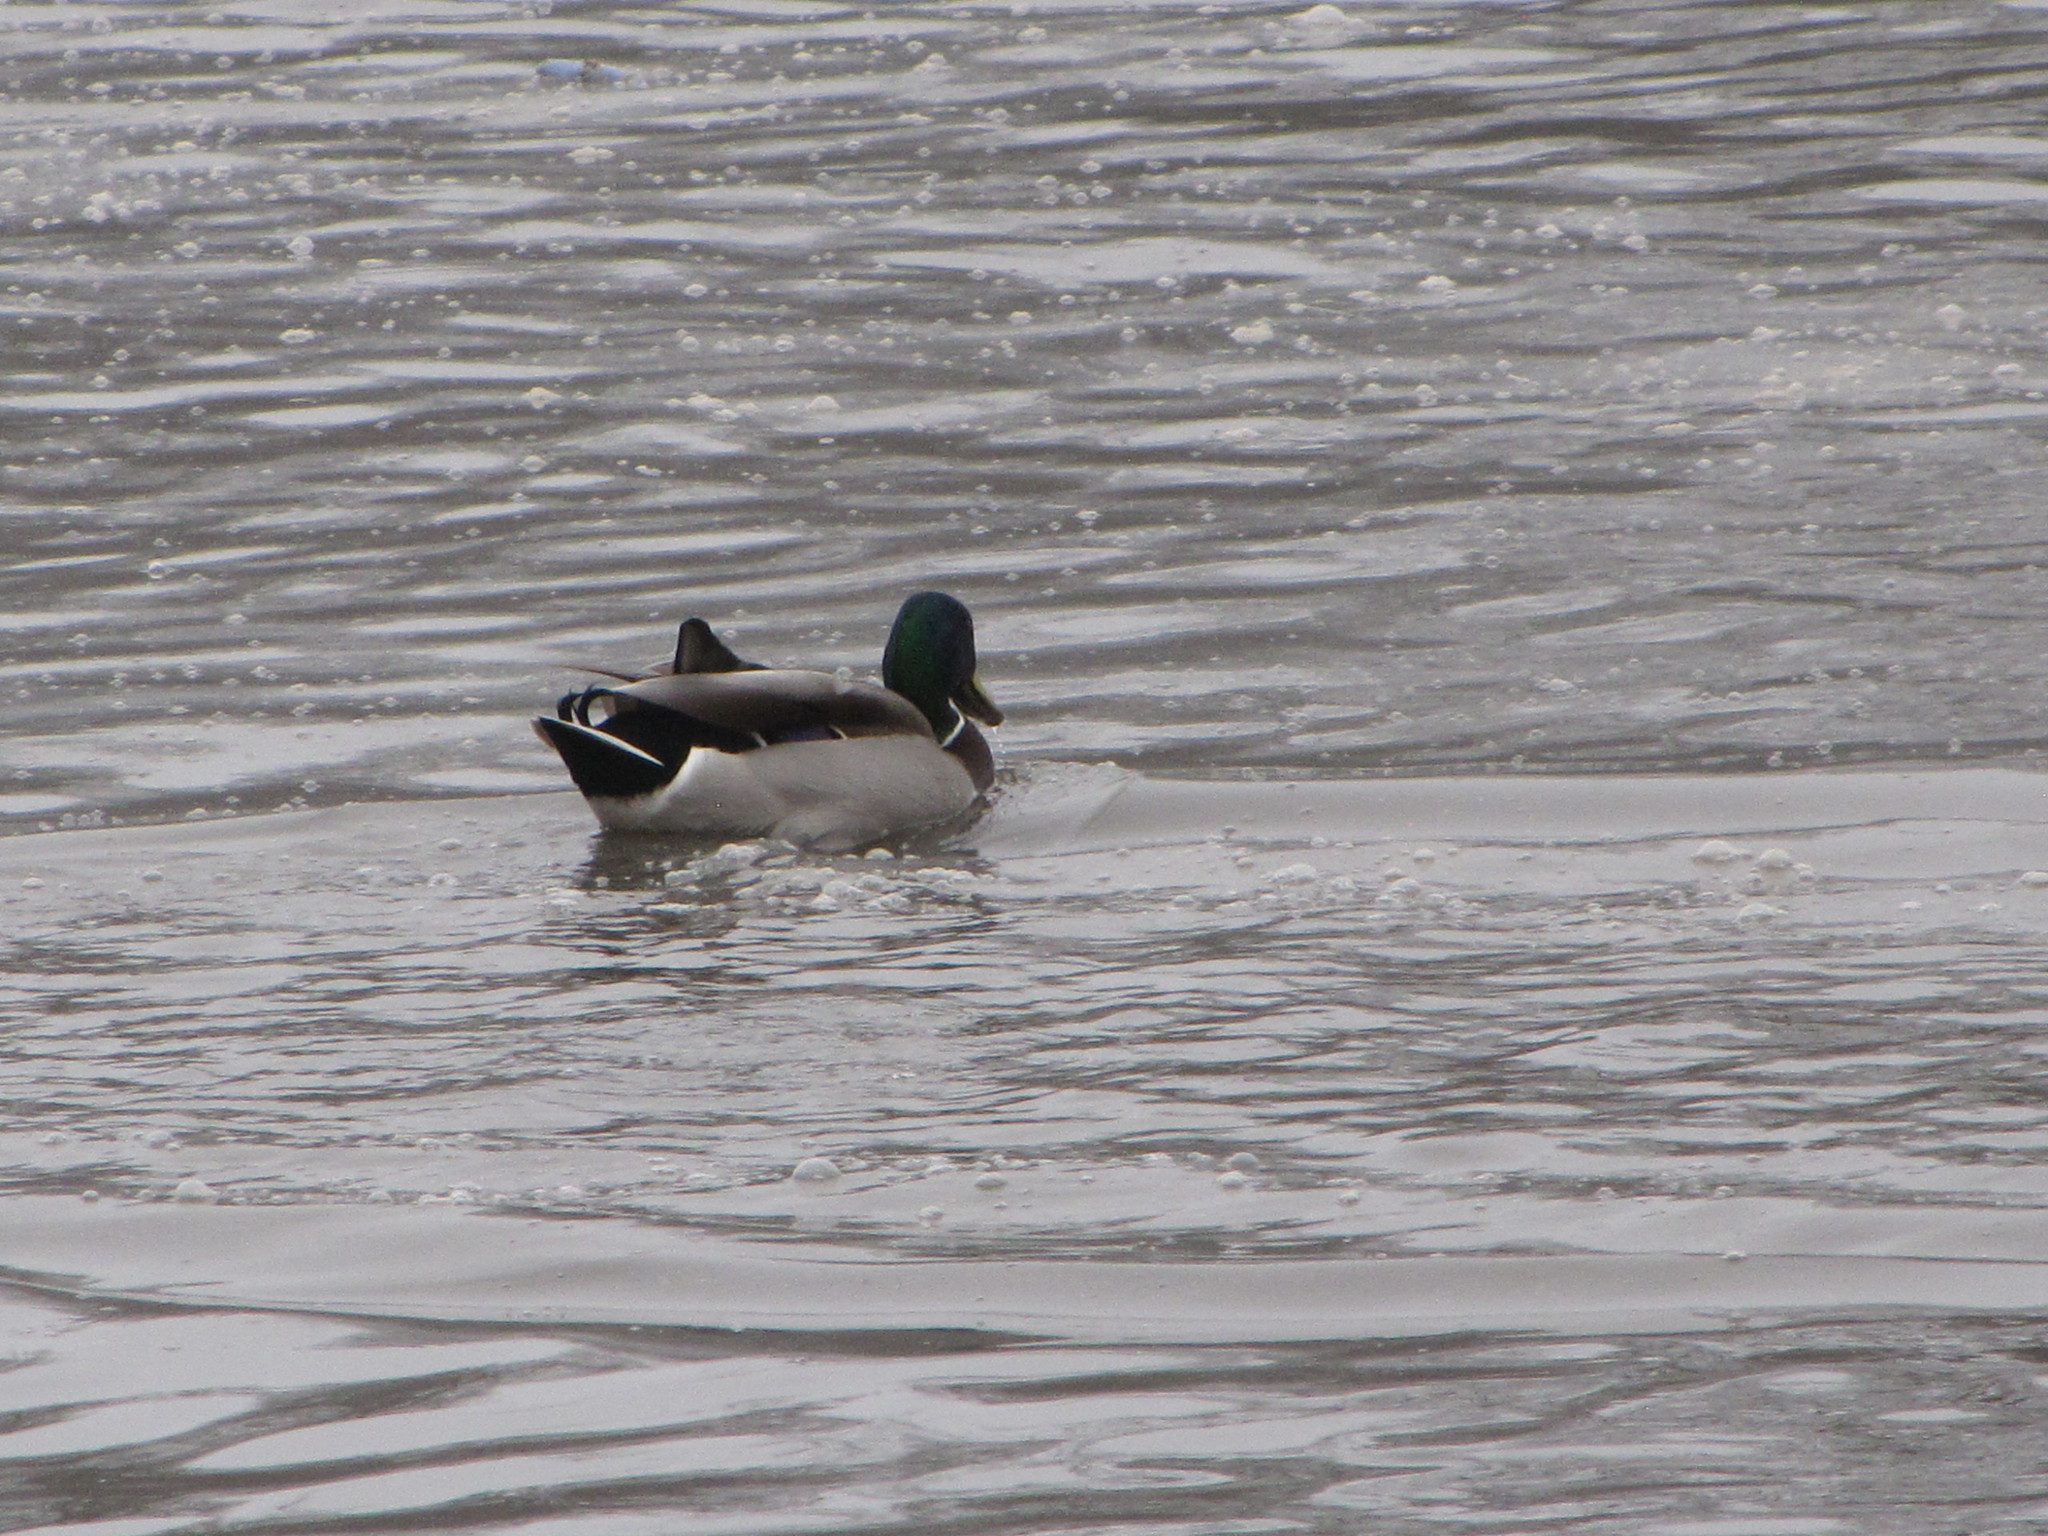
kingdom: Animalia
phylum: Chordata
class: Aves
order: Anseriformes
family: Anatidae
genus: Anas
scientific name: Anas platyrhynchos
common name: Mallard
